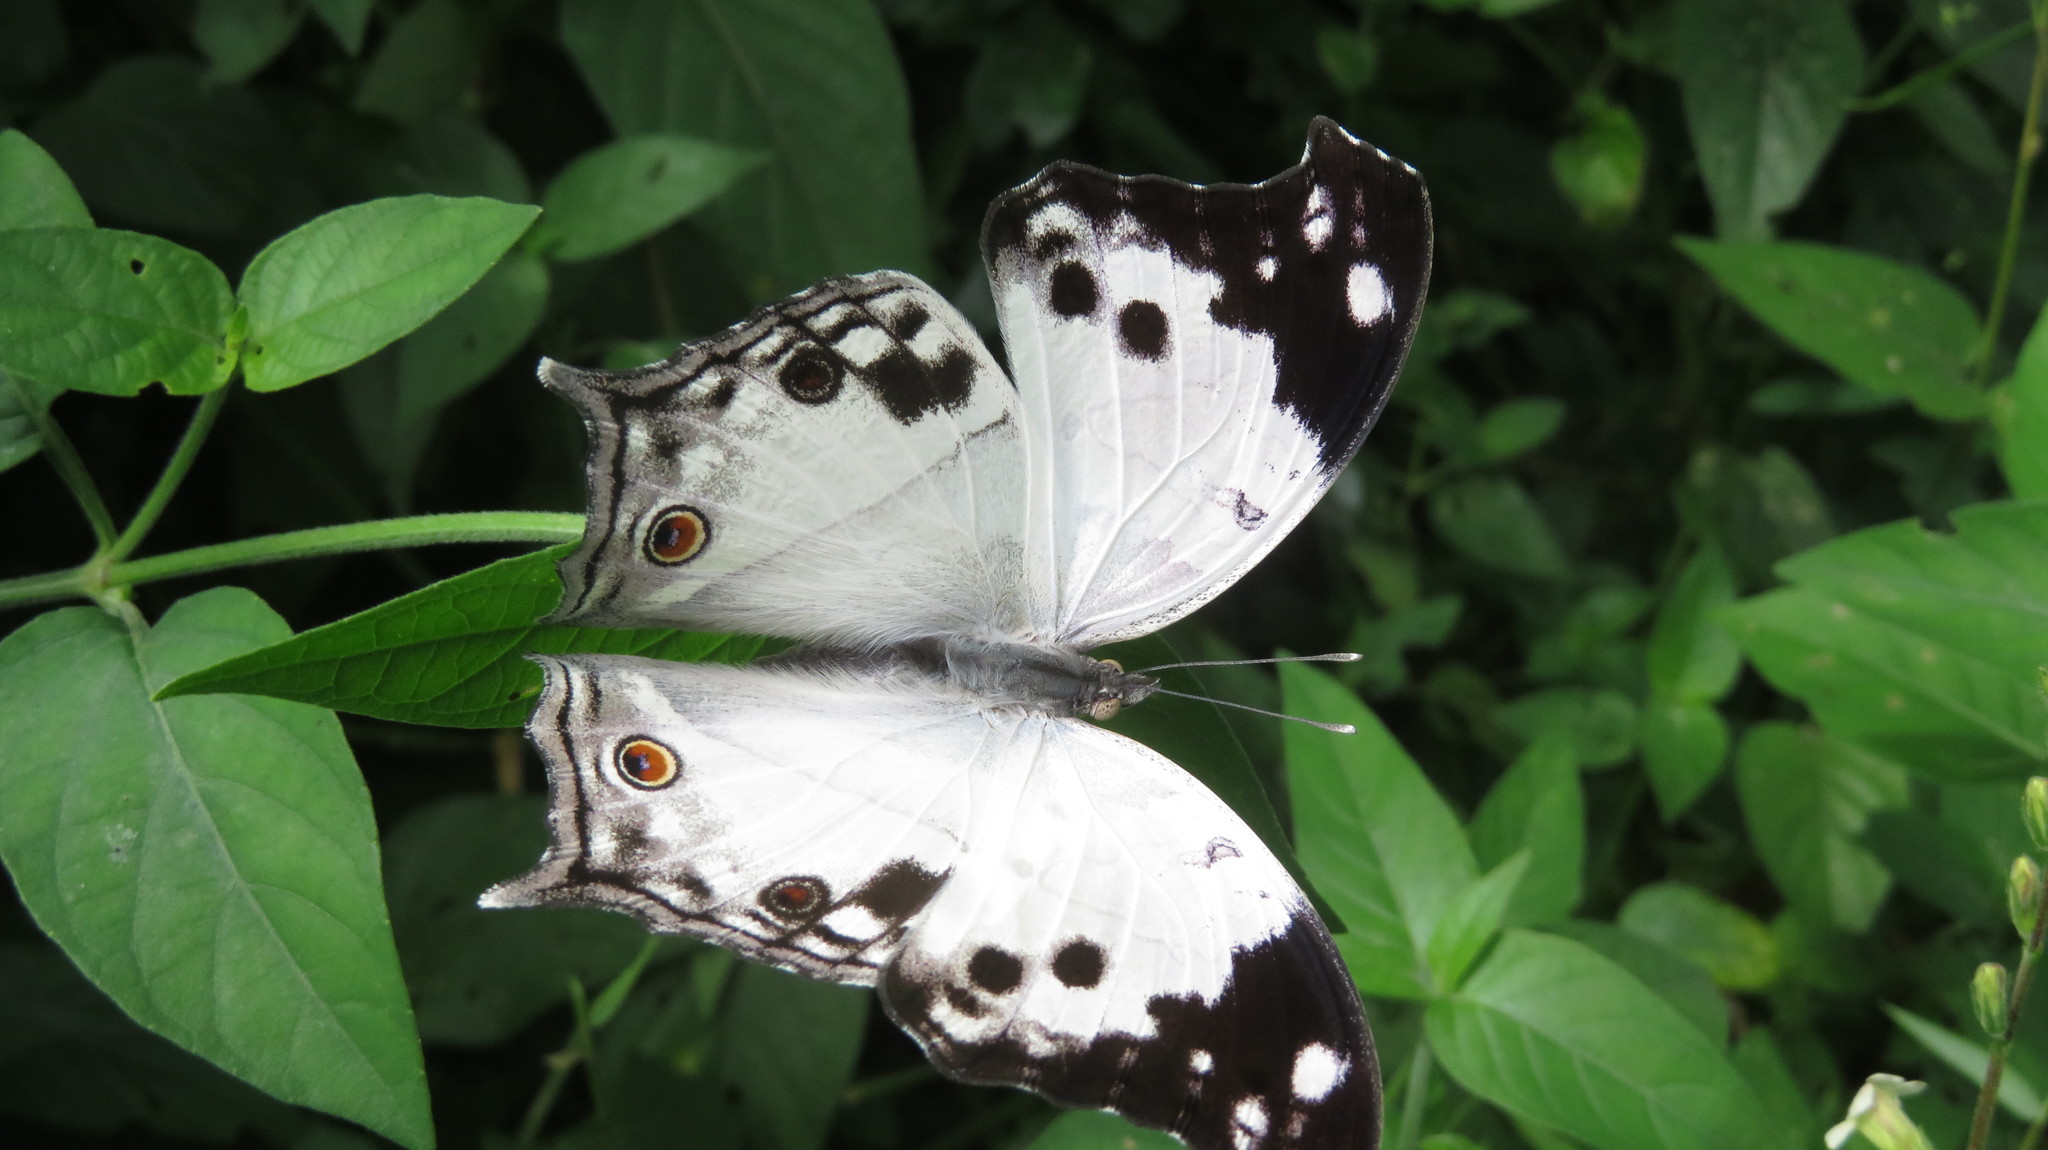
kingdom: Animalia
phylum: Arthropoda
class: Insecta
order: Lepidoptera
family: Nymphalidae
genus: Salamis
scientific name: Salamis
